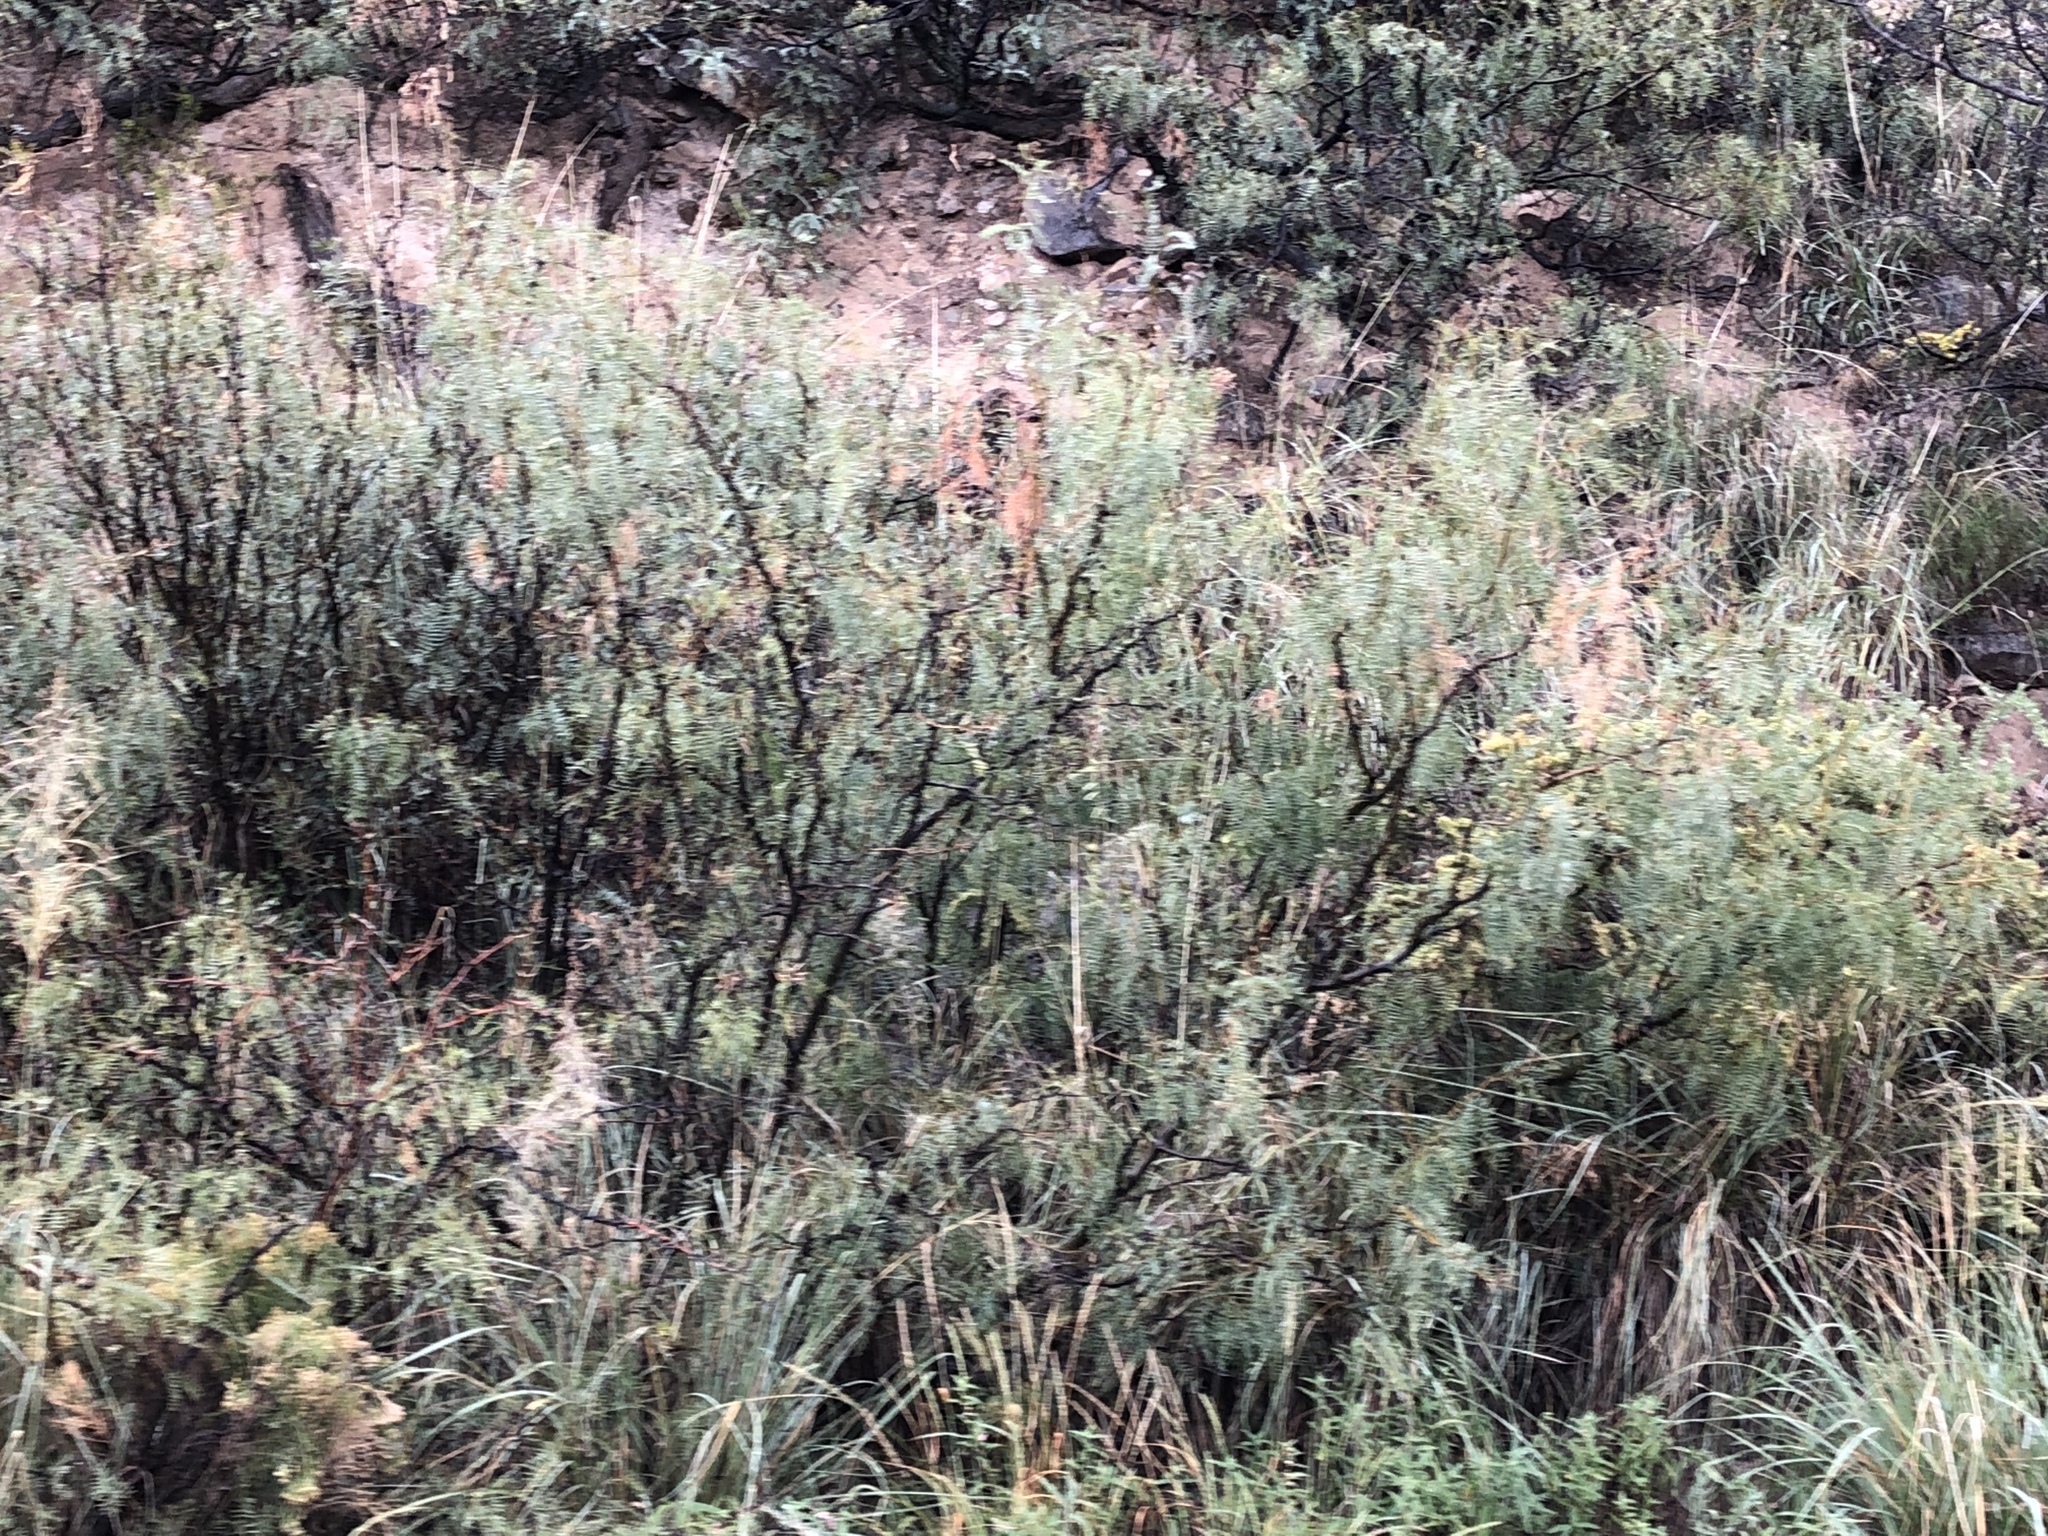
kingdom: Plantae
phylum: Tracheophyta
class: Magnoliopsida
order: Fabales
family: Fabaceae
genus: Prosopis
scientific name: Prosopis glandulosa
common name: Honey mesquite
